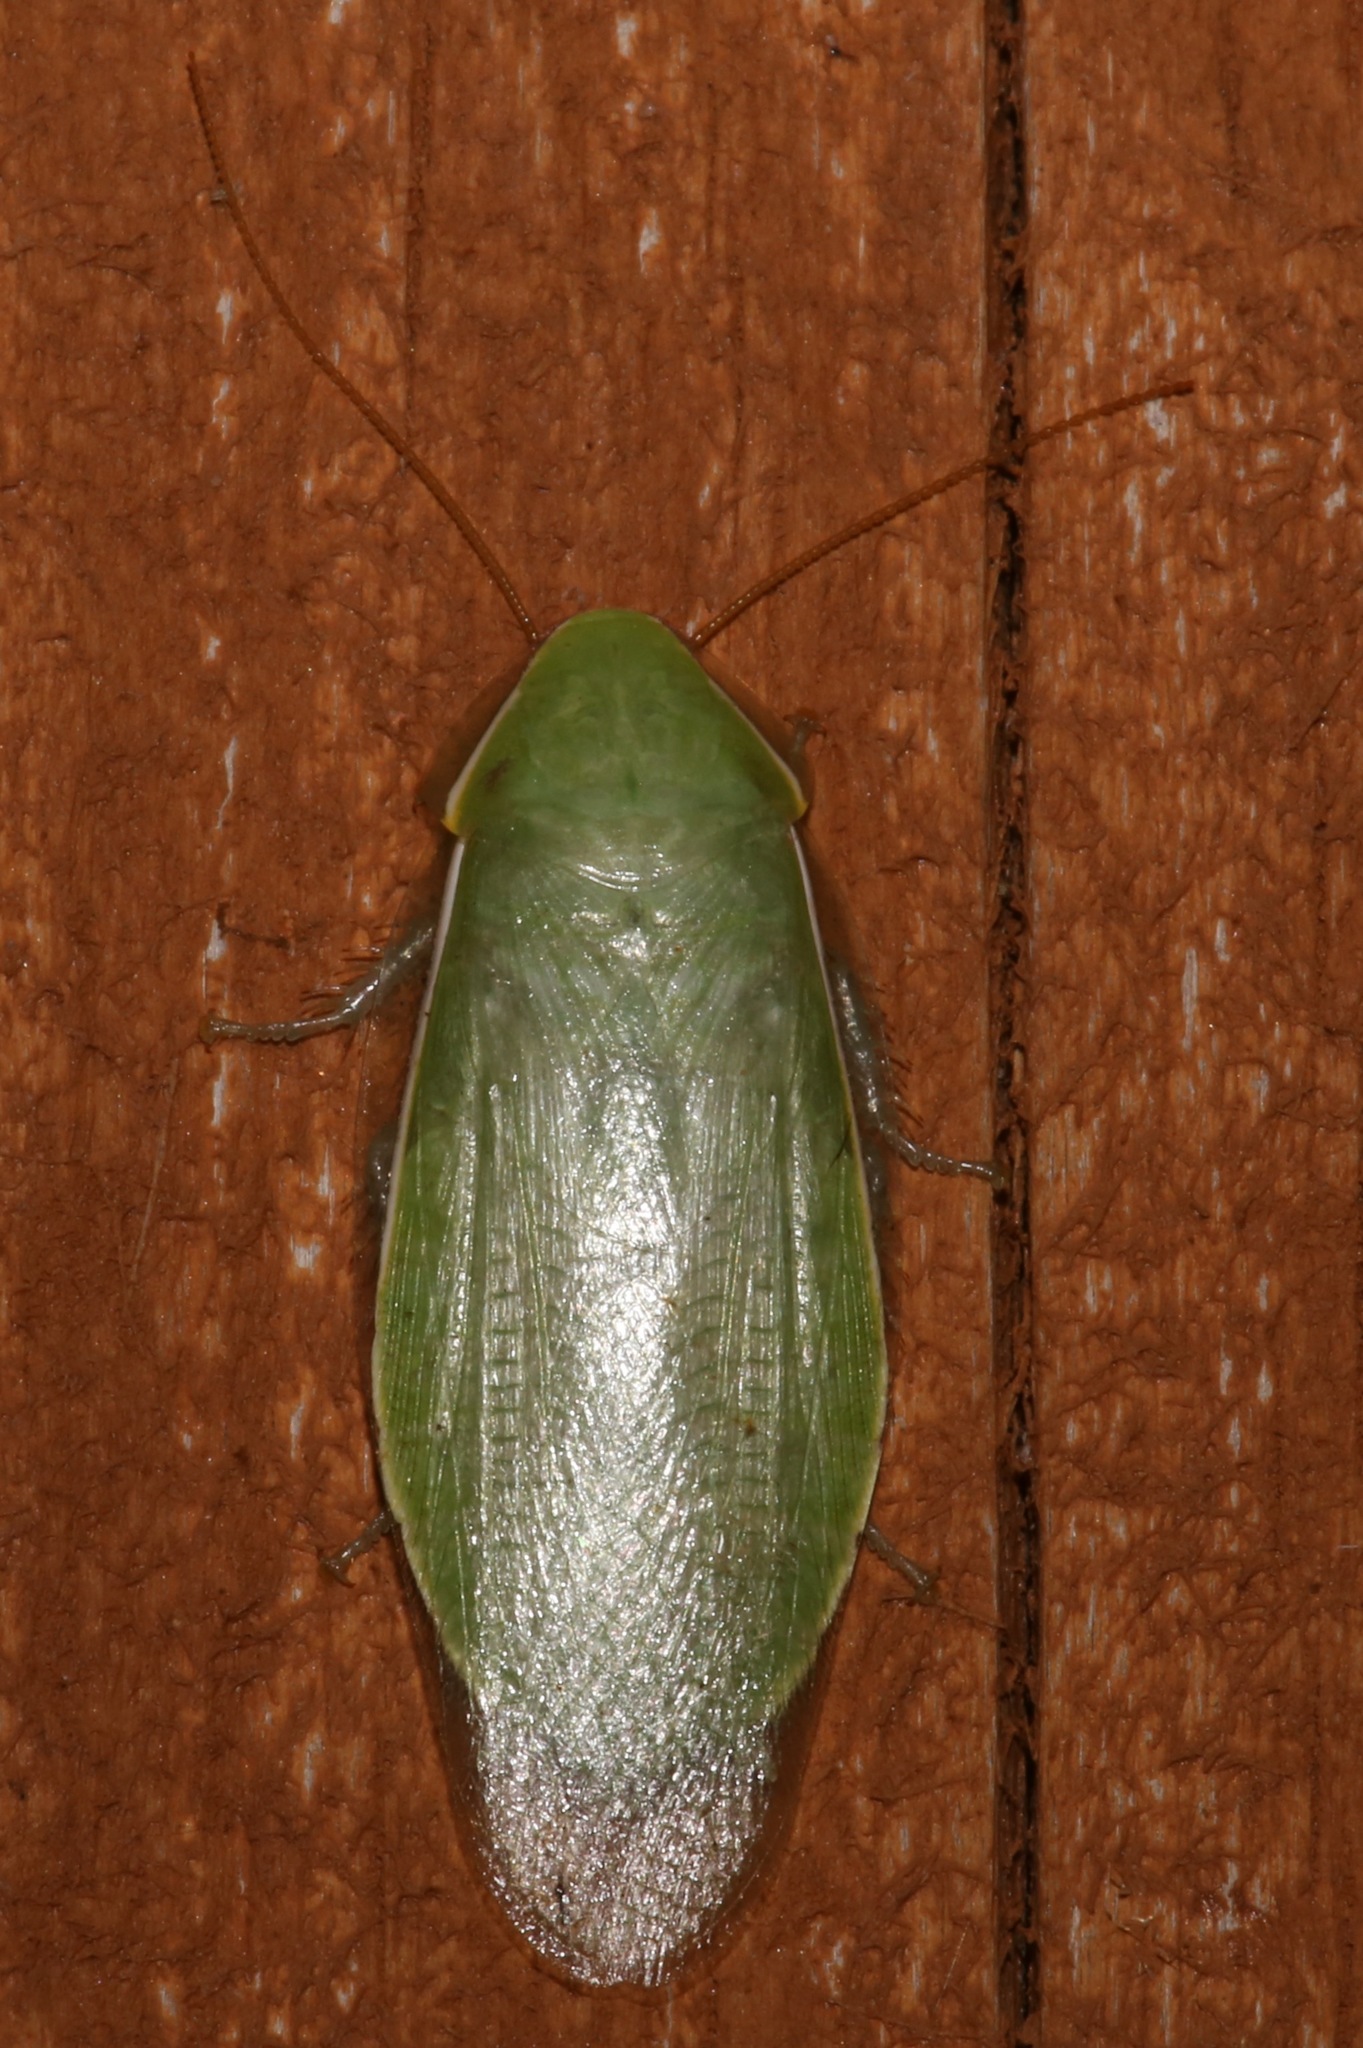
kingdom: Animalia
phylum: Arthropoda
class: Insecta
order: Blattodea
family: Blaberidae
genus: Panchlora
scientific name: Panchlora nivea
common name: Cuban cockroach
